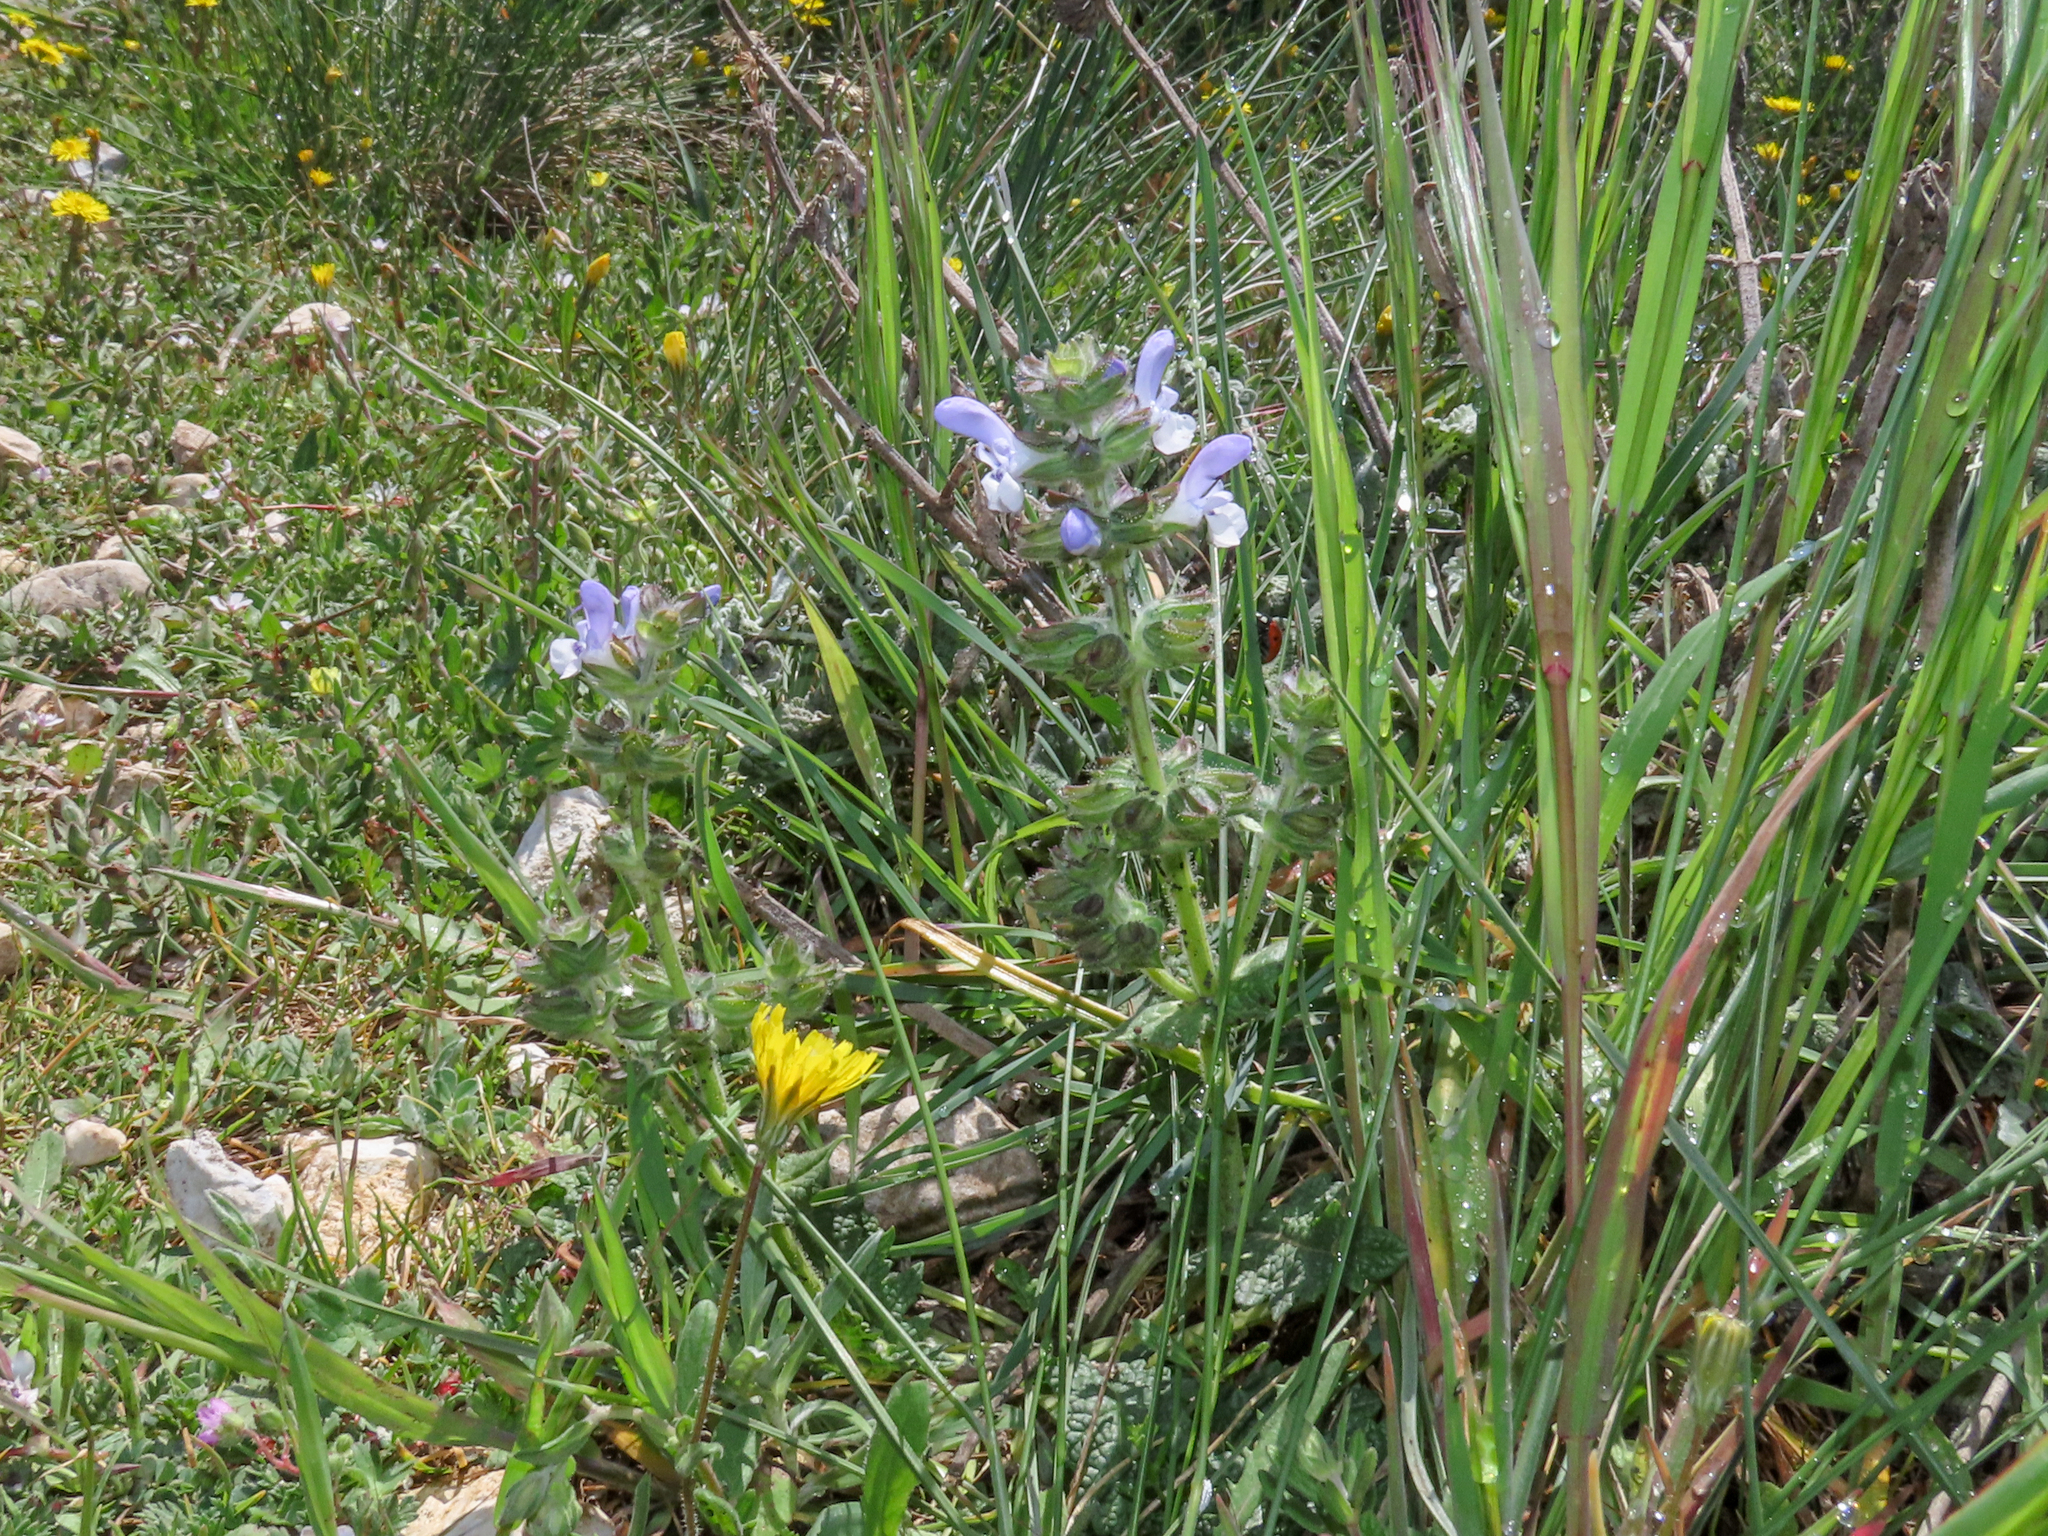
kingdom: Plantae
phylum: Tracheophyta
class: Magnoliopsida
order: Lamiales
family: Lamiaceae
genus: Salvia
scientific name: Salvia clandestina
